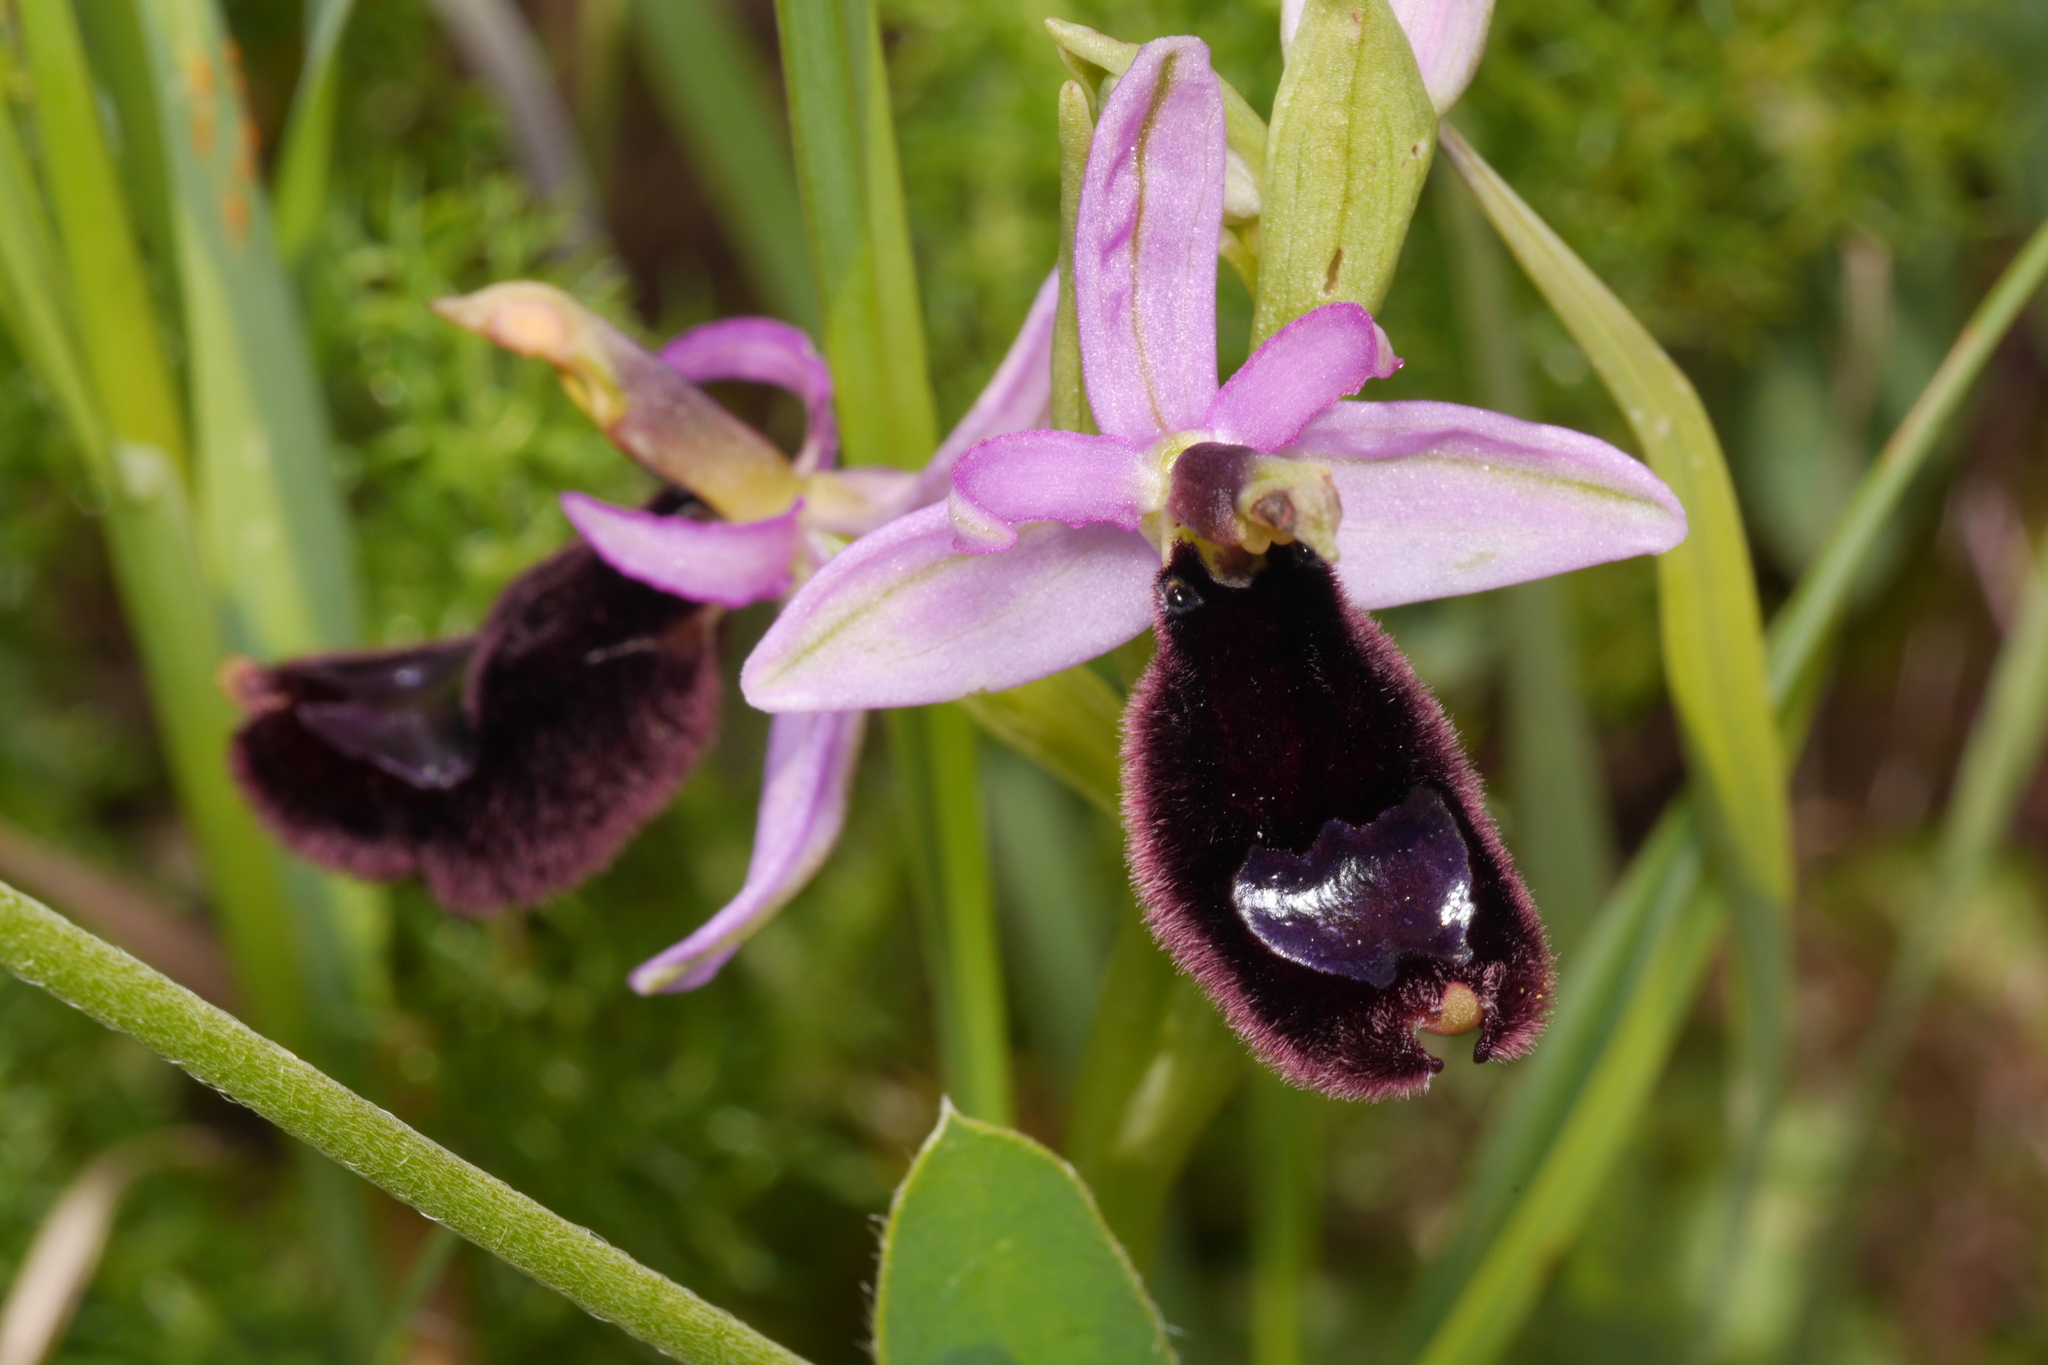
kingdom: Plantae
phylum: Tracheophyta
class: Liliopsida
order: Asparagales
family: Orchidaceae
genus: Ophrys
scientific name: Ophrys bertolonii
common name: Bertoloni's bee orchid
